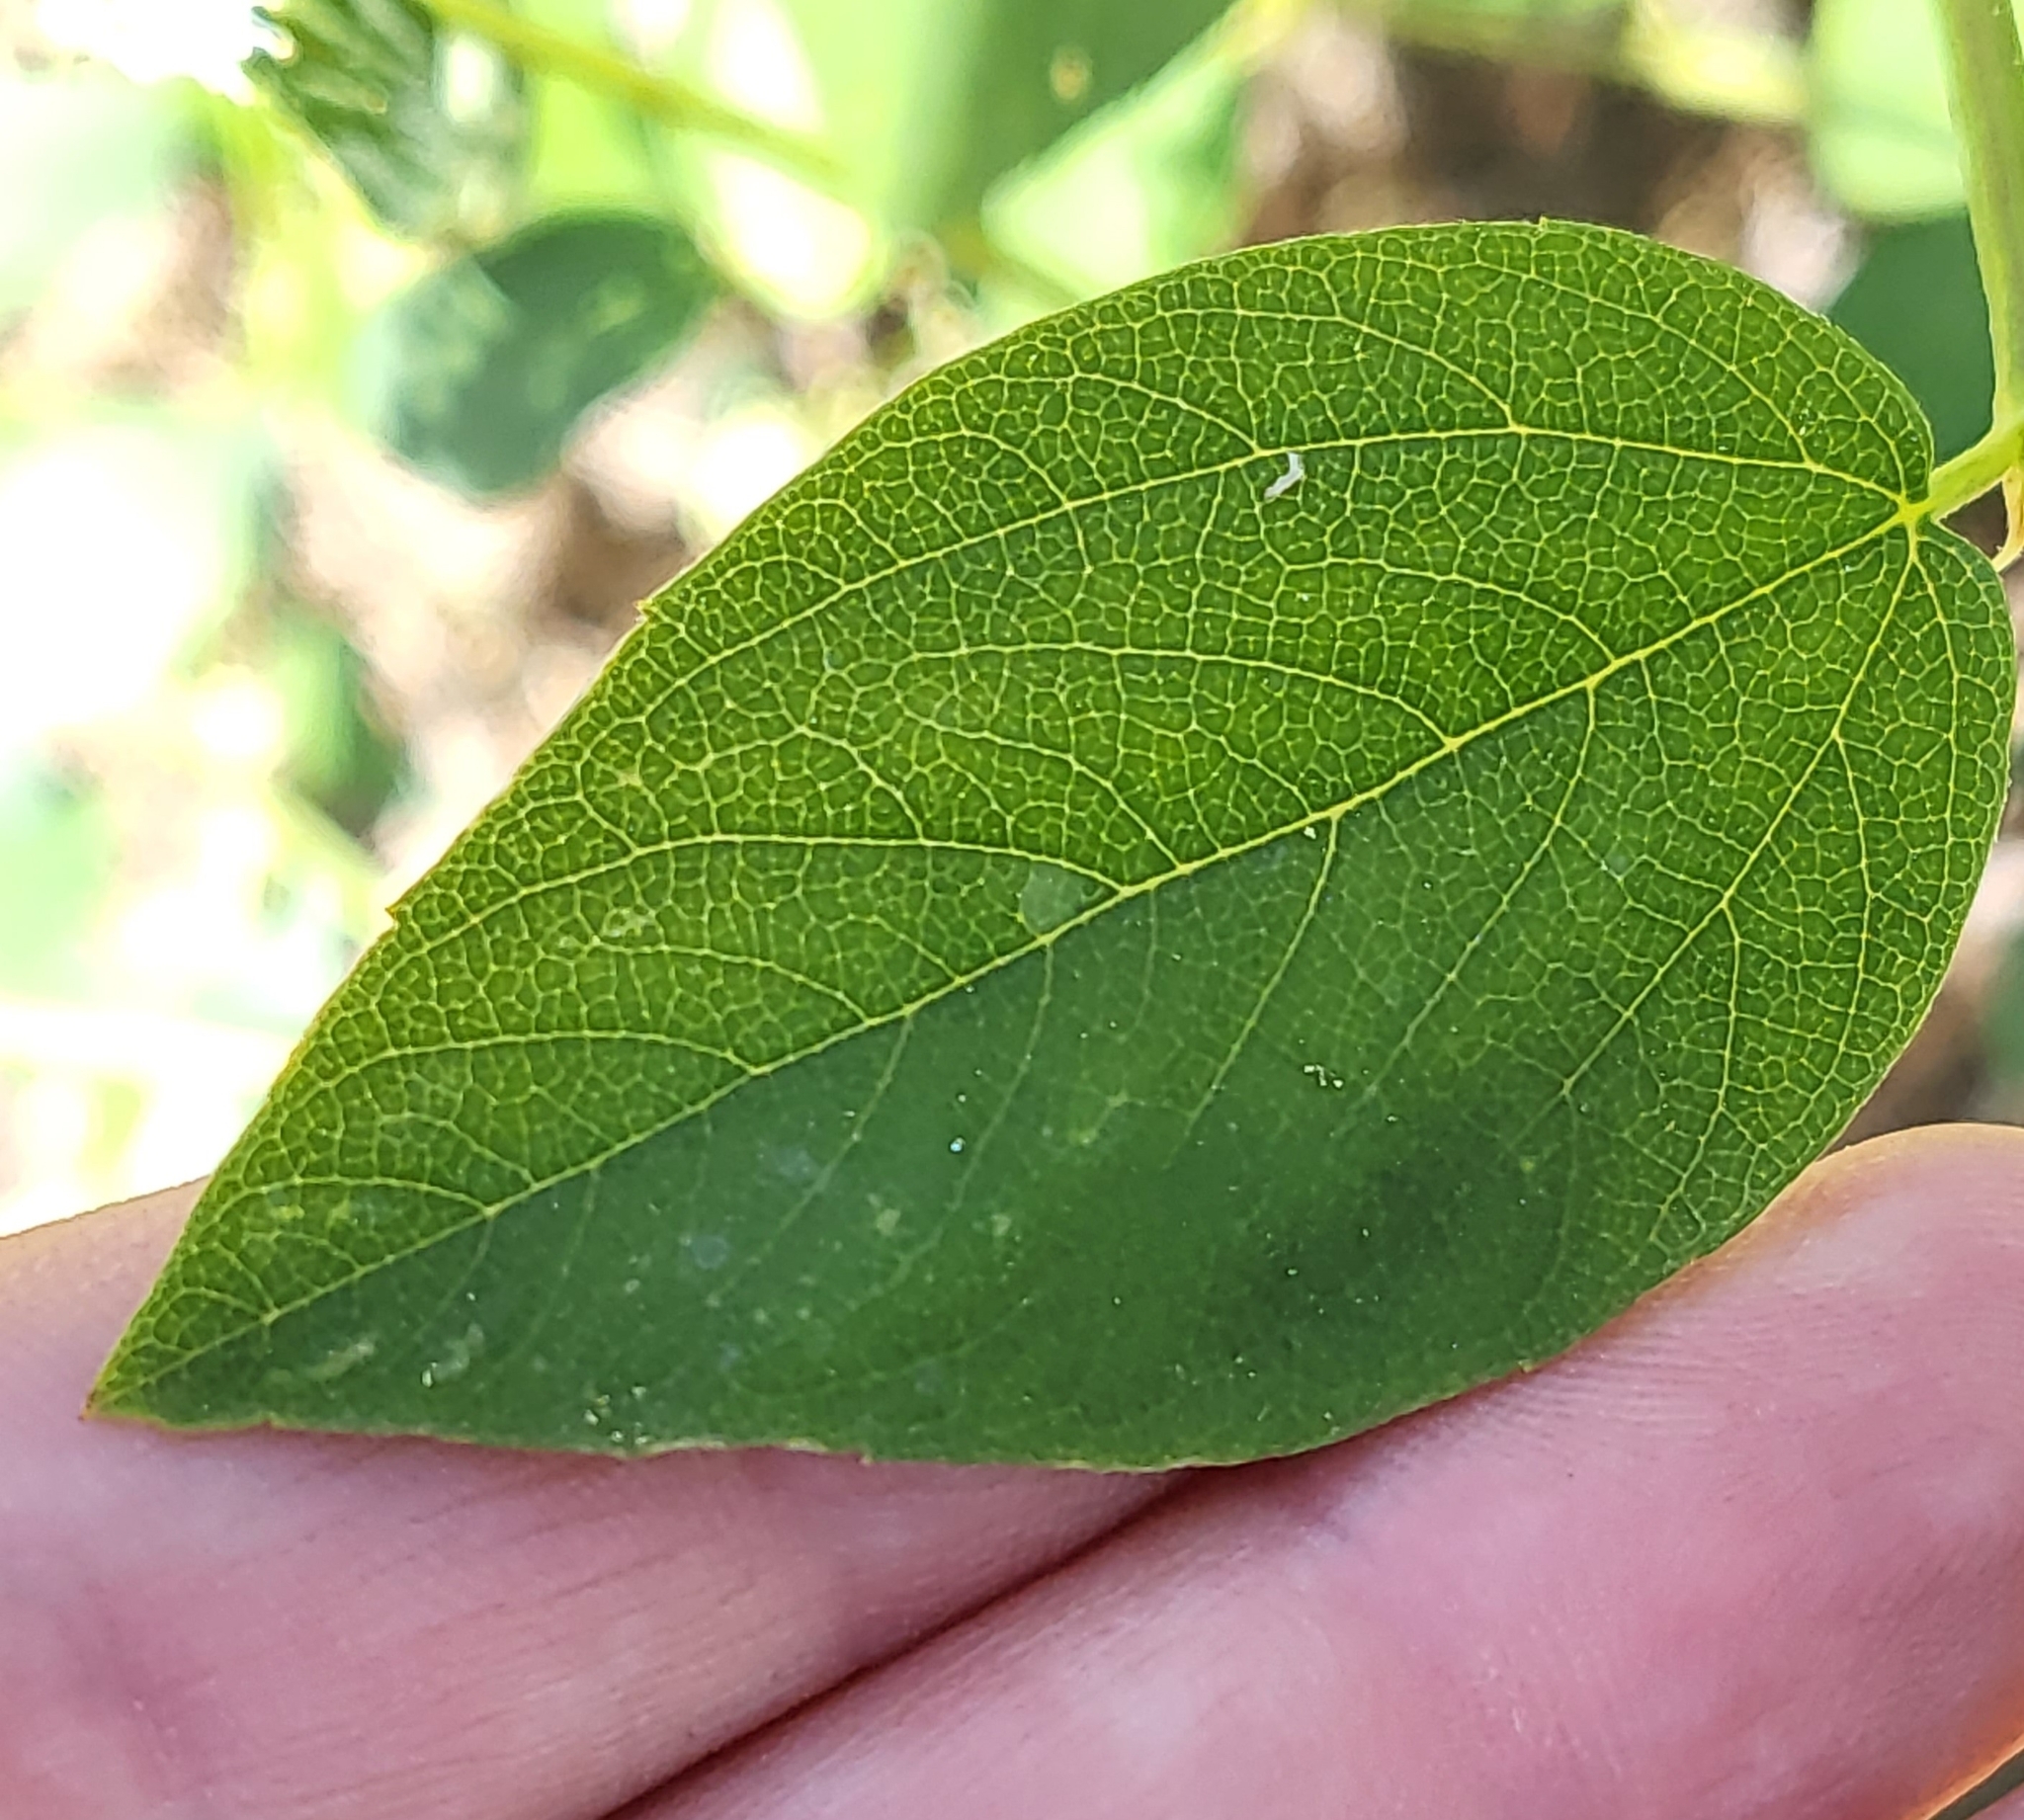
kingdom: Plantae
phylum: Tracheophyta
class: Magnoliopsida
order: Rosales
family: Rhamnaceae
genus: Ceanothus
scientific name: Ceanothus integerrimus
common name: Deerbrush ceanothus
